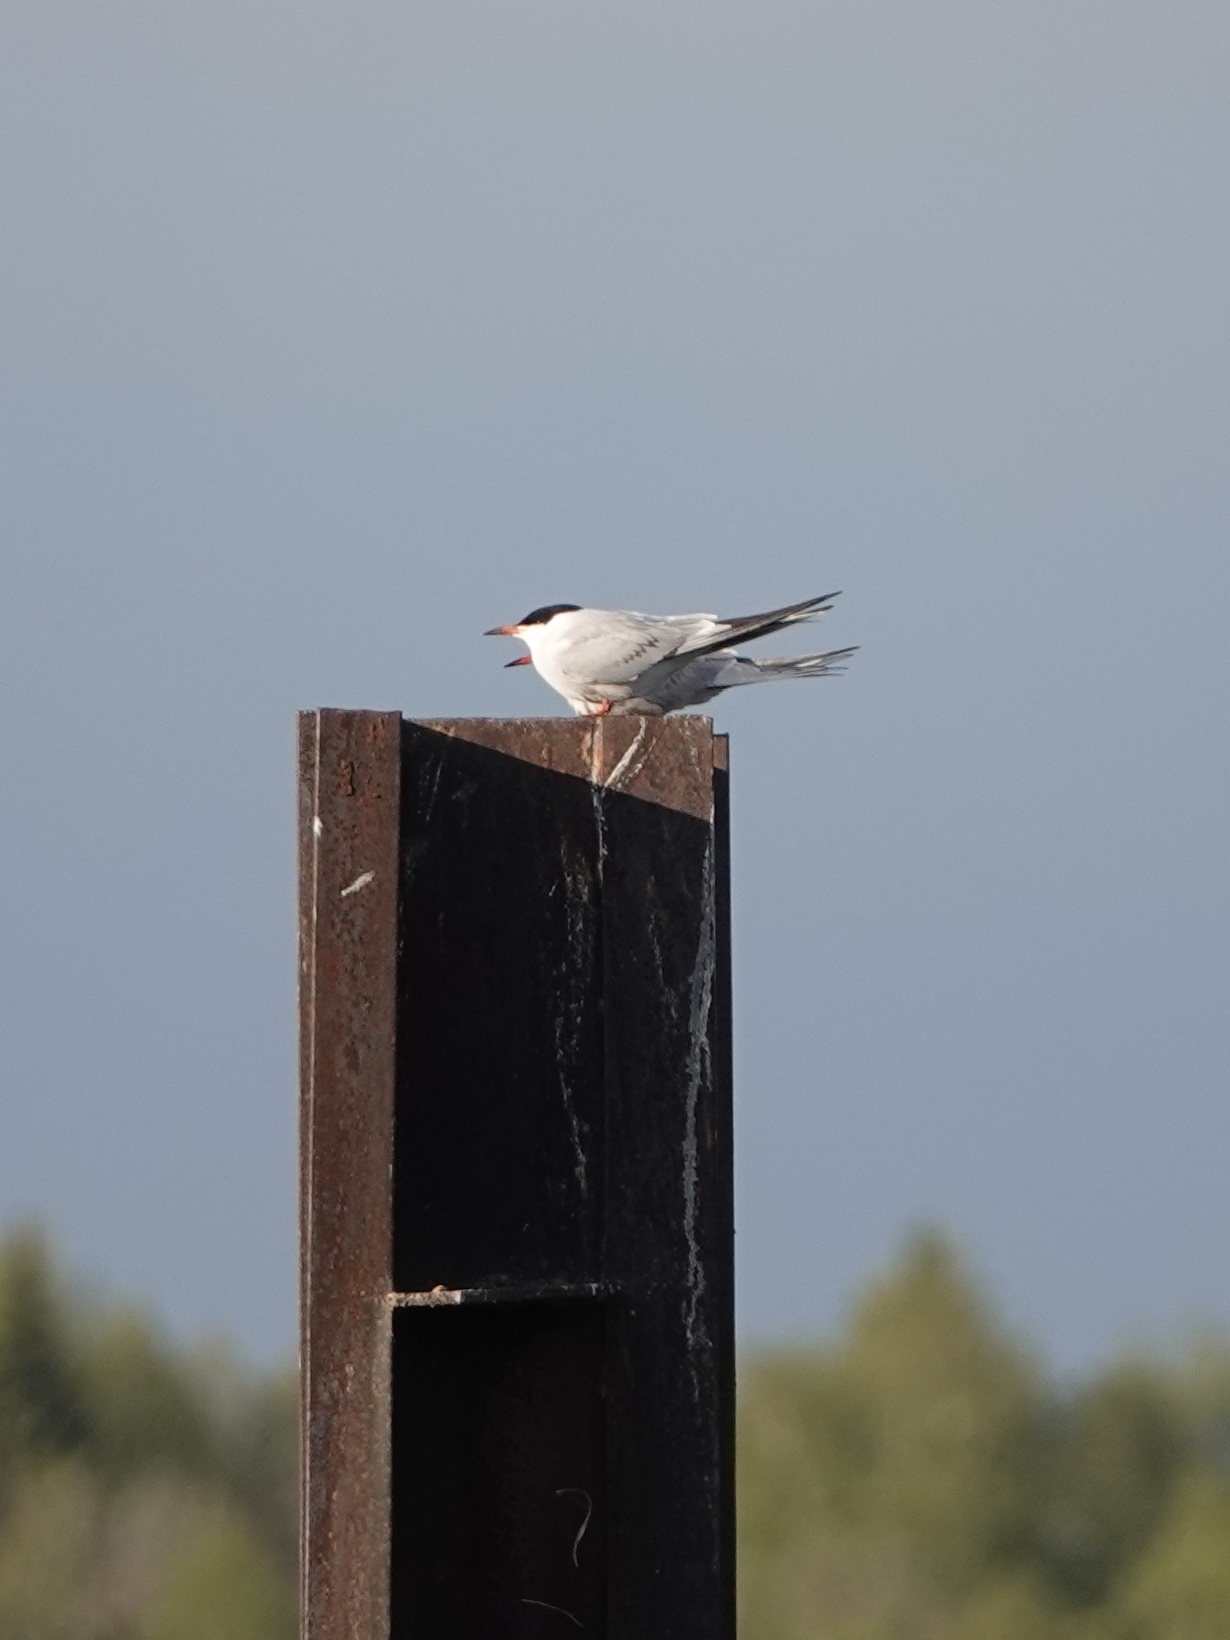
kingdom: Animalia
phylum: Chordata
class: Aves
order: Charadriiformes
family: Laridae
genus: Sterna
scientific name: Sterna hirundo
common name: Common tern
